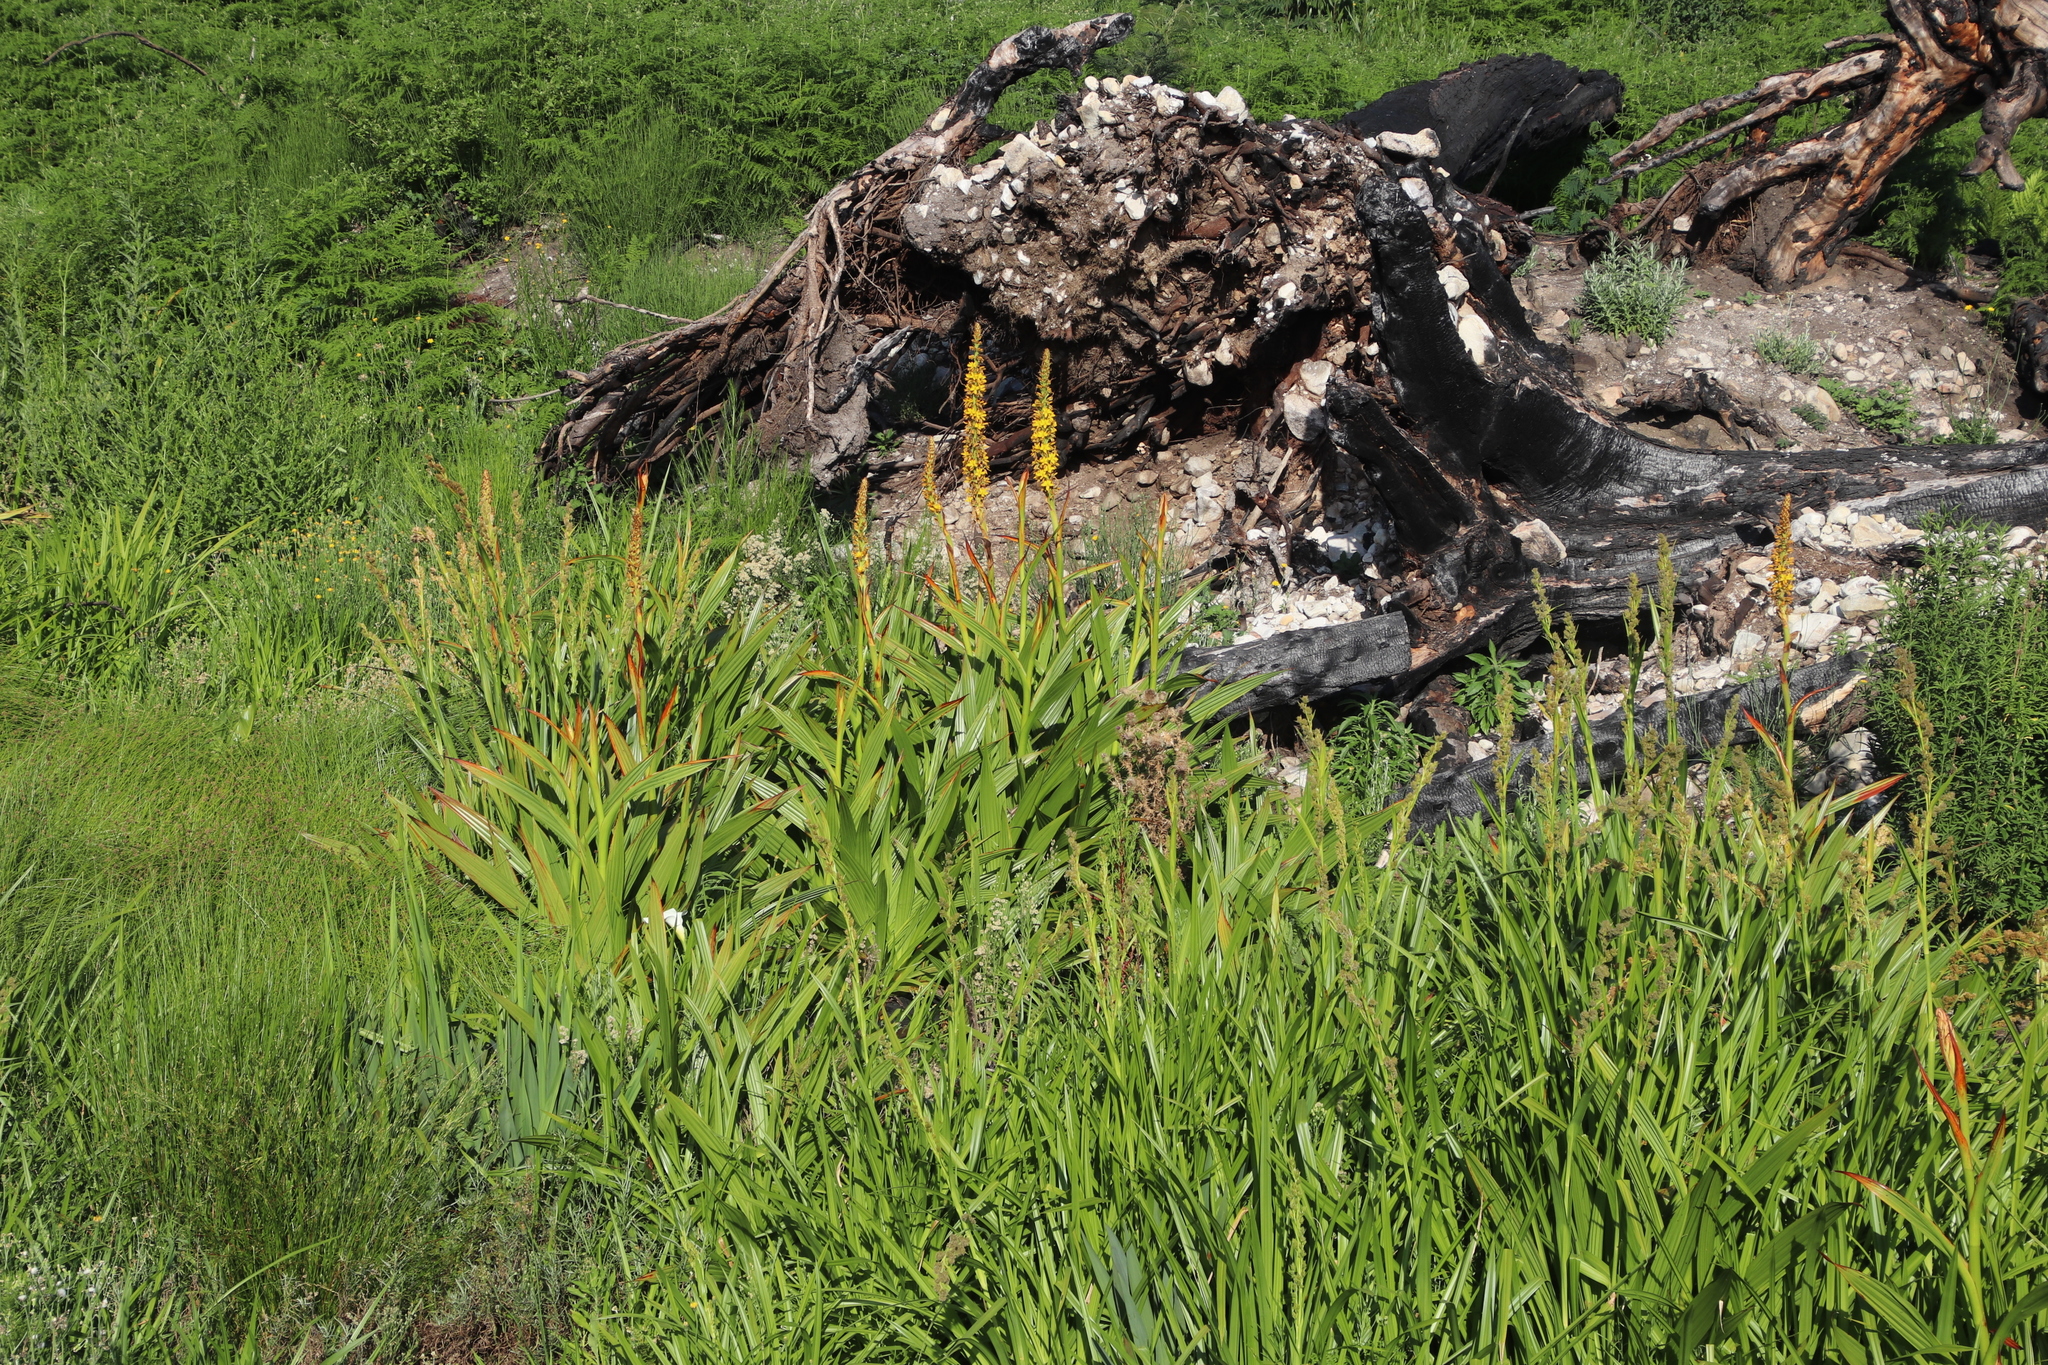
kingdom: Plantae
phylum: Tracheophyta
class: Liliopsida
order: Commelinales
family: Haemodoraceae
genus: Wachendorfia
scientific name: Wachendorfia thyrsiflora
